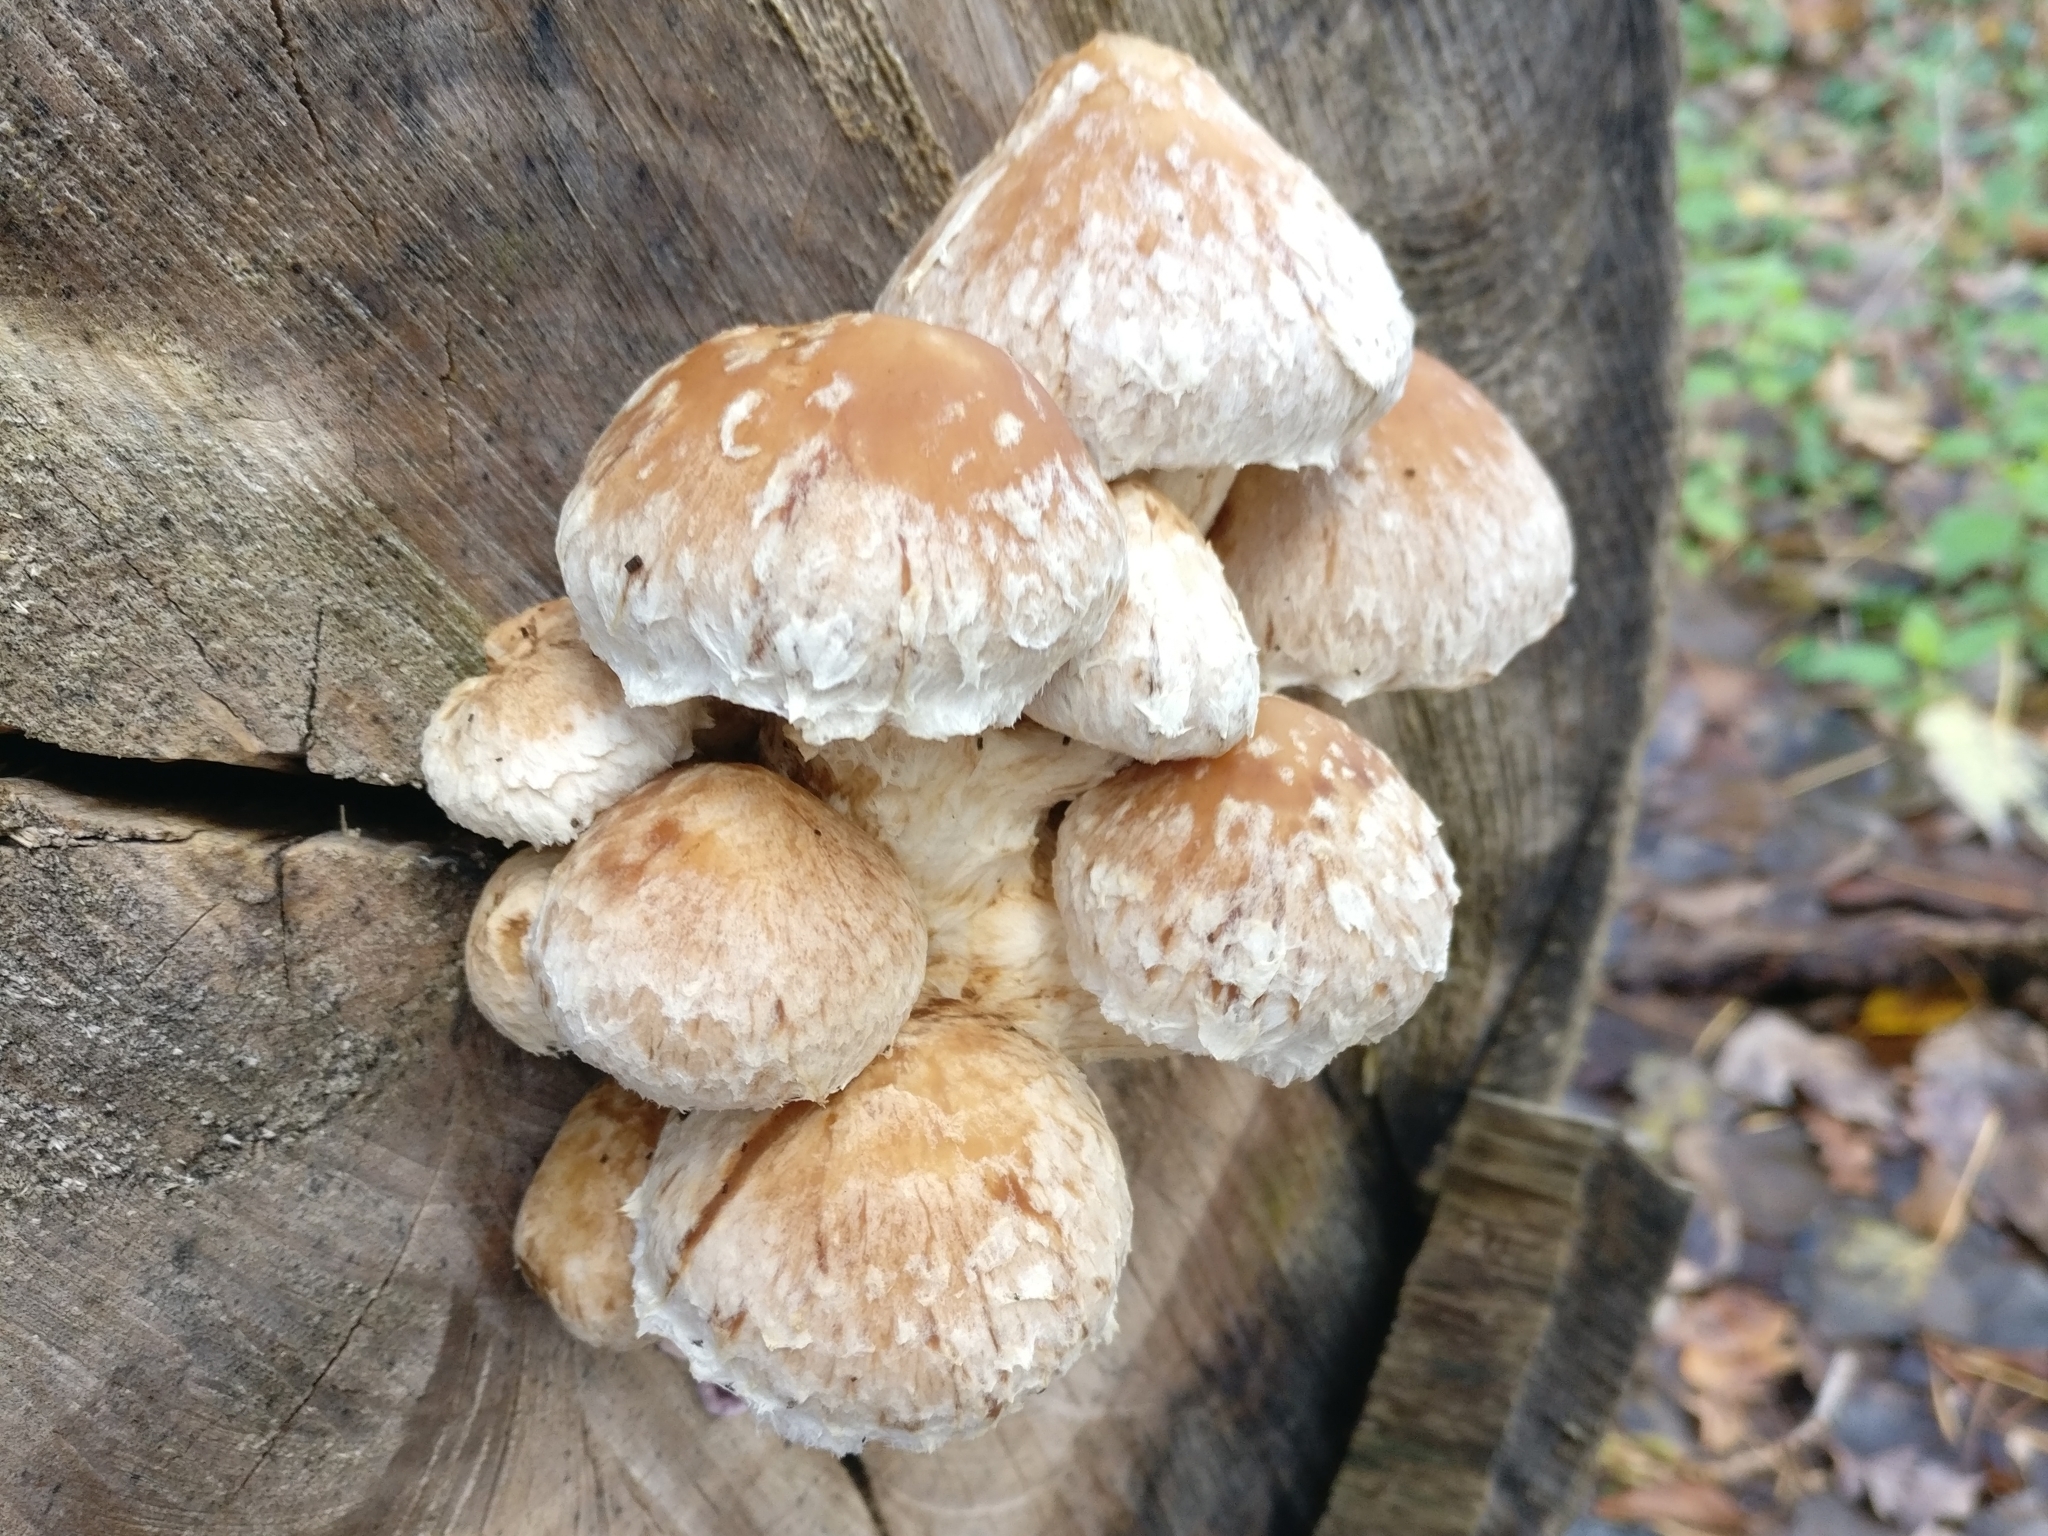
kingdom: Fungi
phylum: Basidiomycota
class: Agaricomycetes
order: Agaricales
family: Strophariaceae
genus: Pholiota
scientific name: Pholiota populnea
